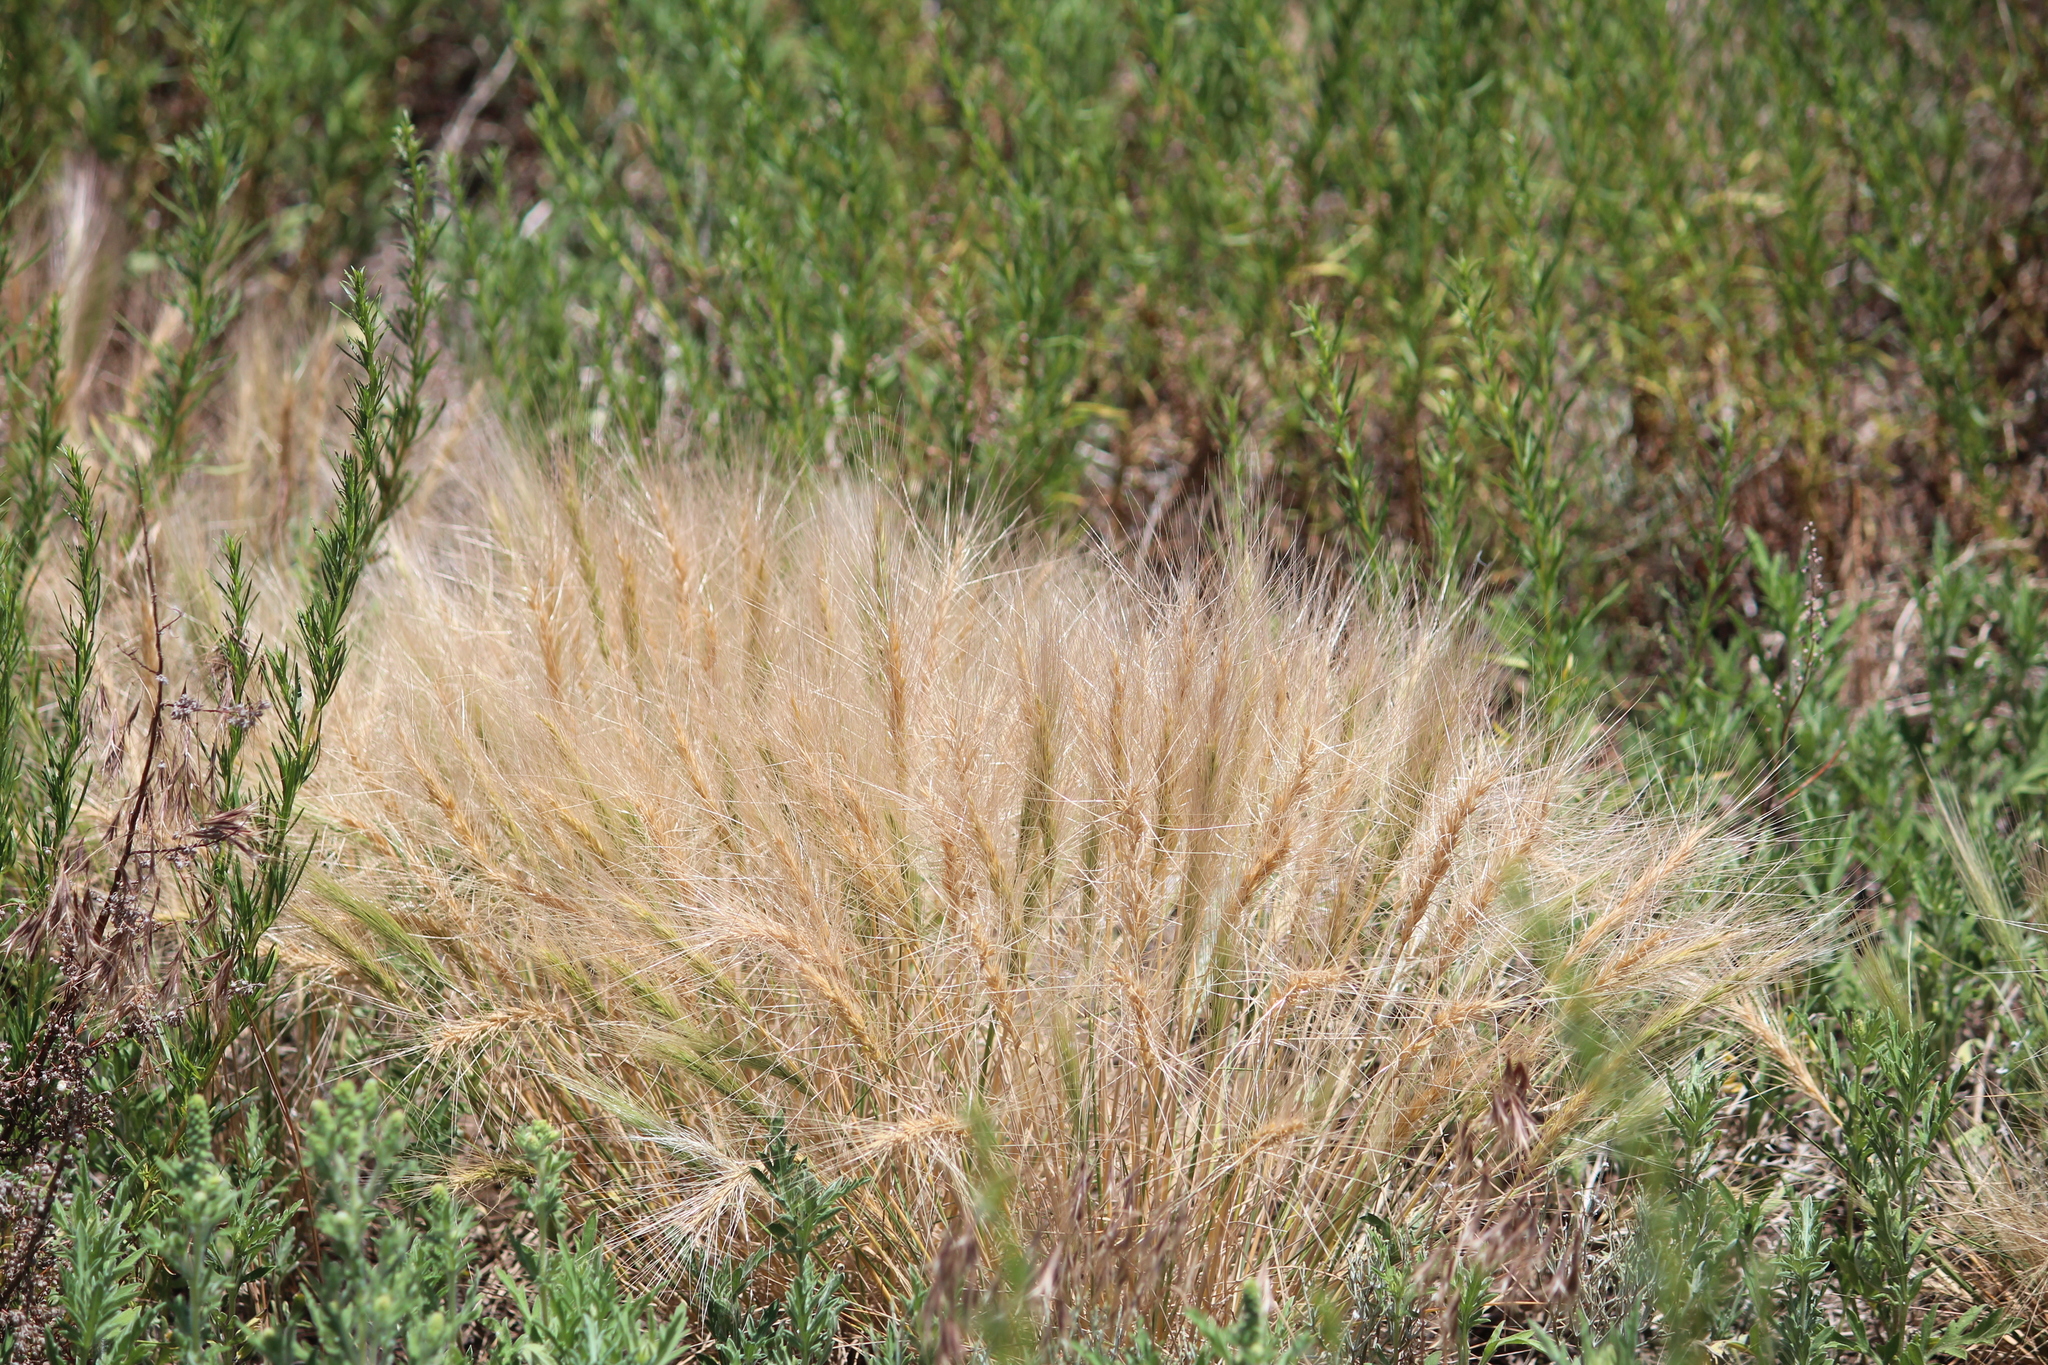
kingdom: Plantae
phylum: Tracheophyta
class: Liliopsida
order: Poales
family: Poaceae
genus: Elymus
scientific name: Elymus elymoides
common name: Bottlebrush squirreltail
